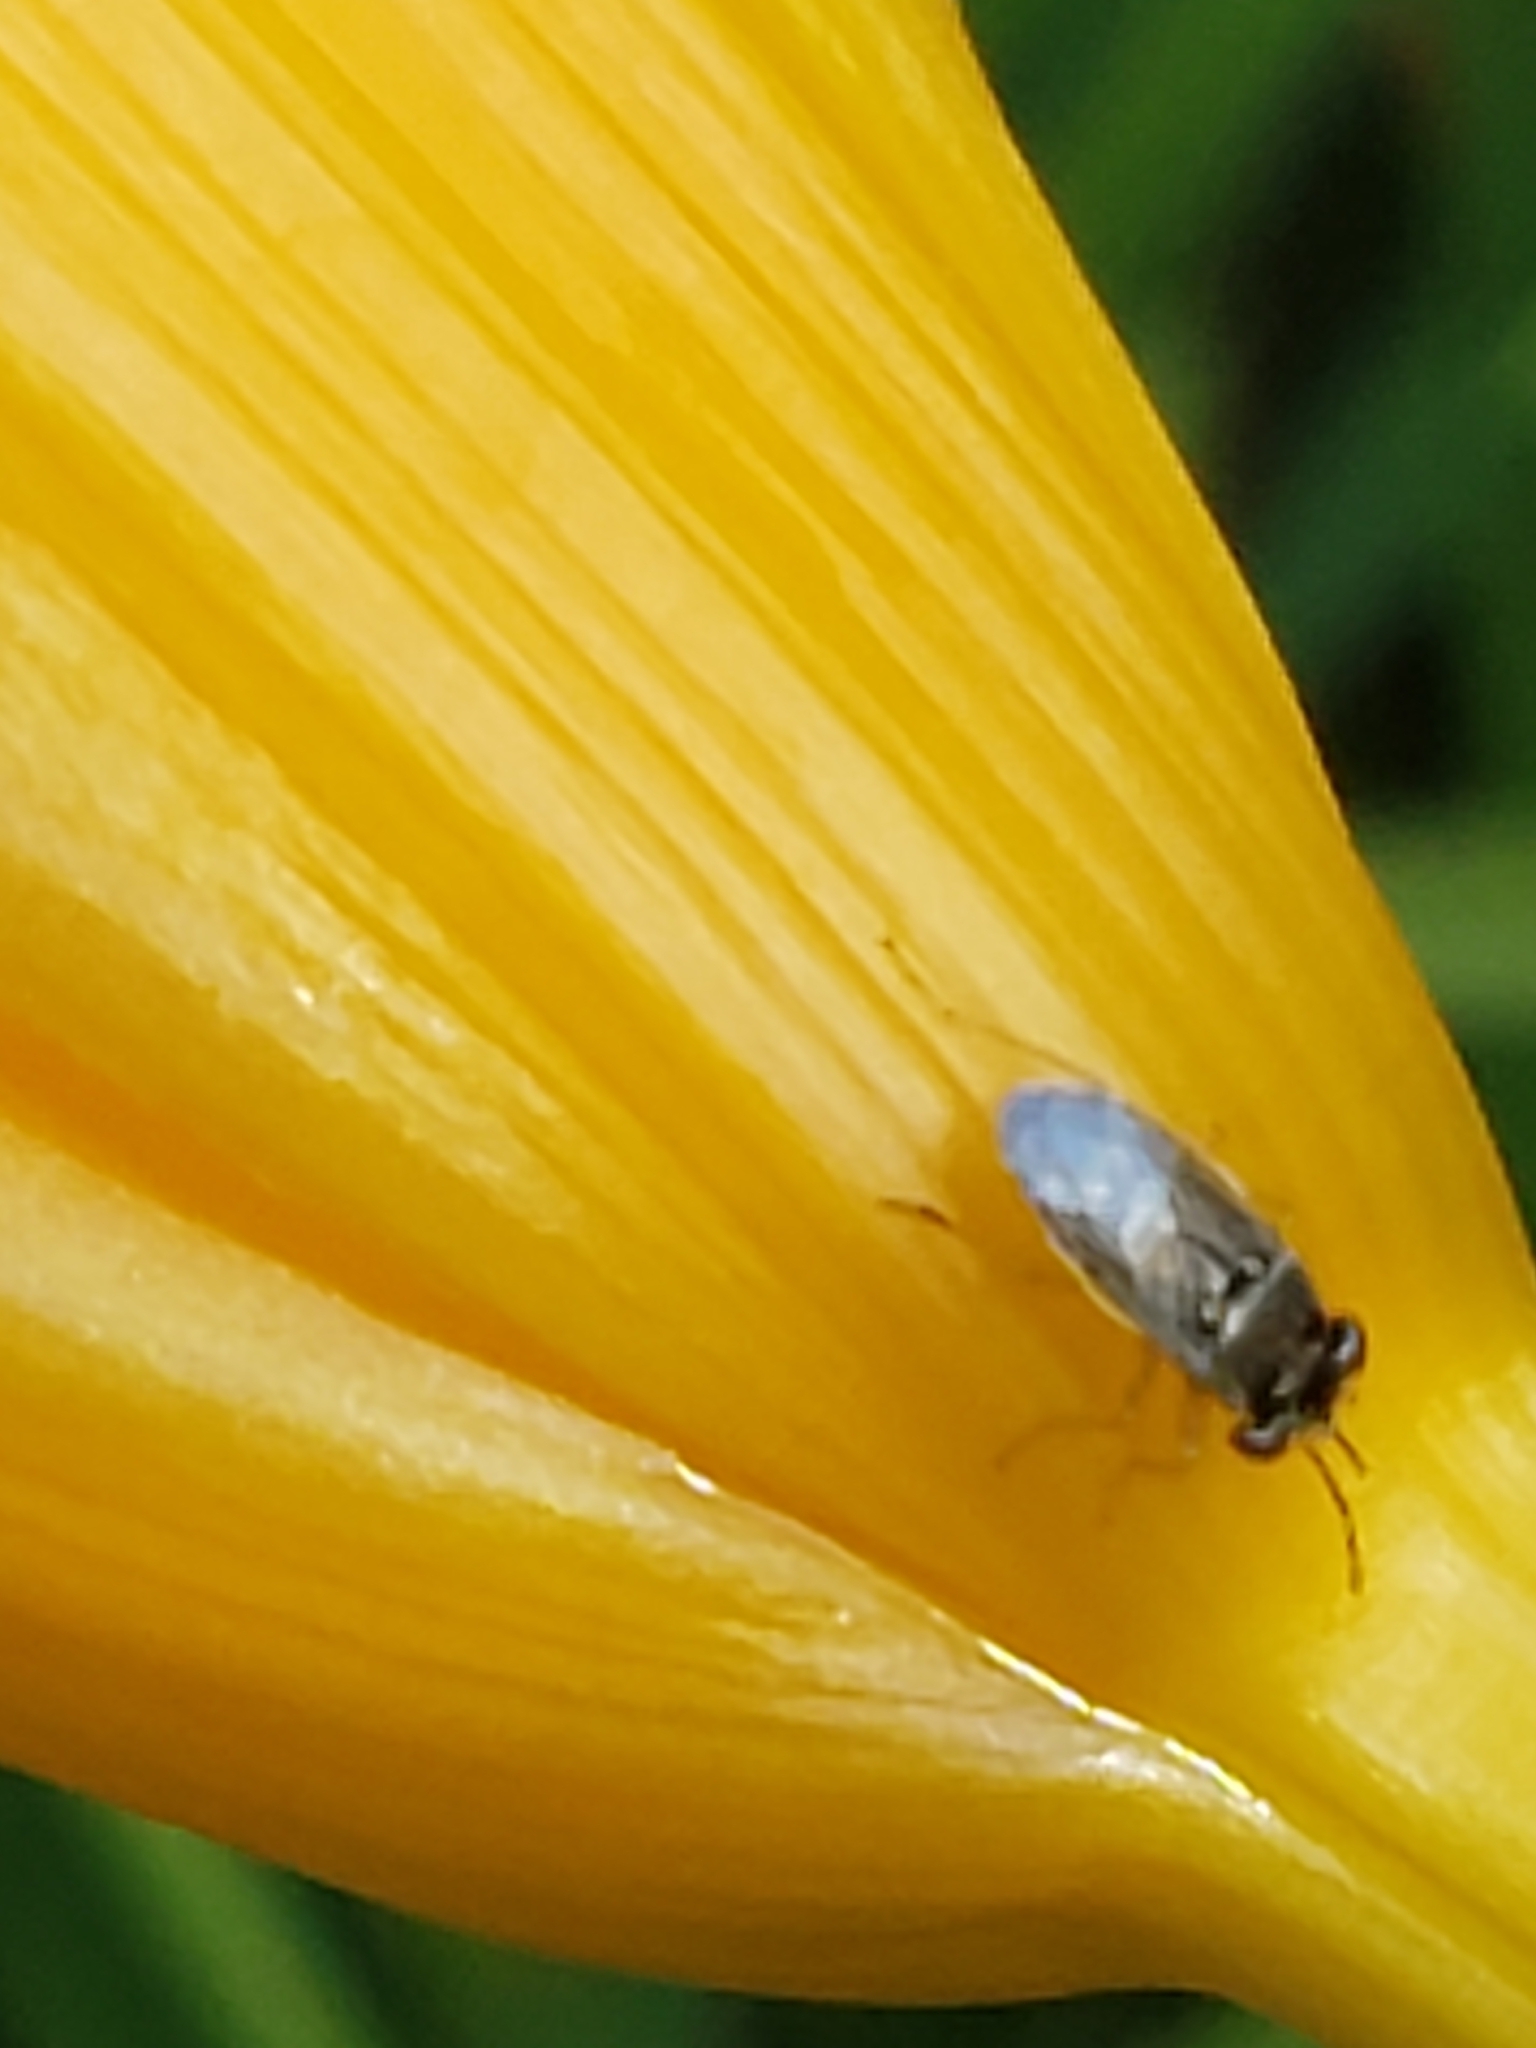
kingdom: Animalia
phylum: Arthropoda
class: Insecta
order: Hemiptera
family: Geocoridae
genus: Geocoris
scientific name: Geocoris punctipes
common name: Big-eyed bug
